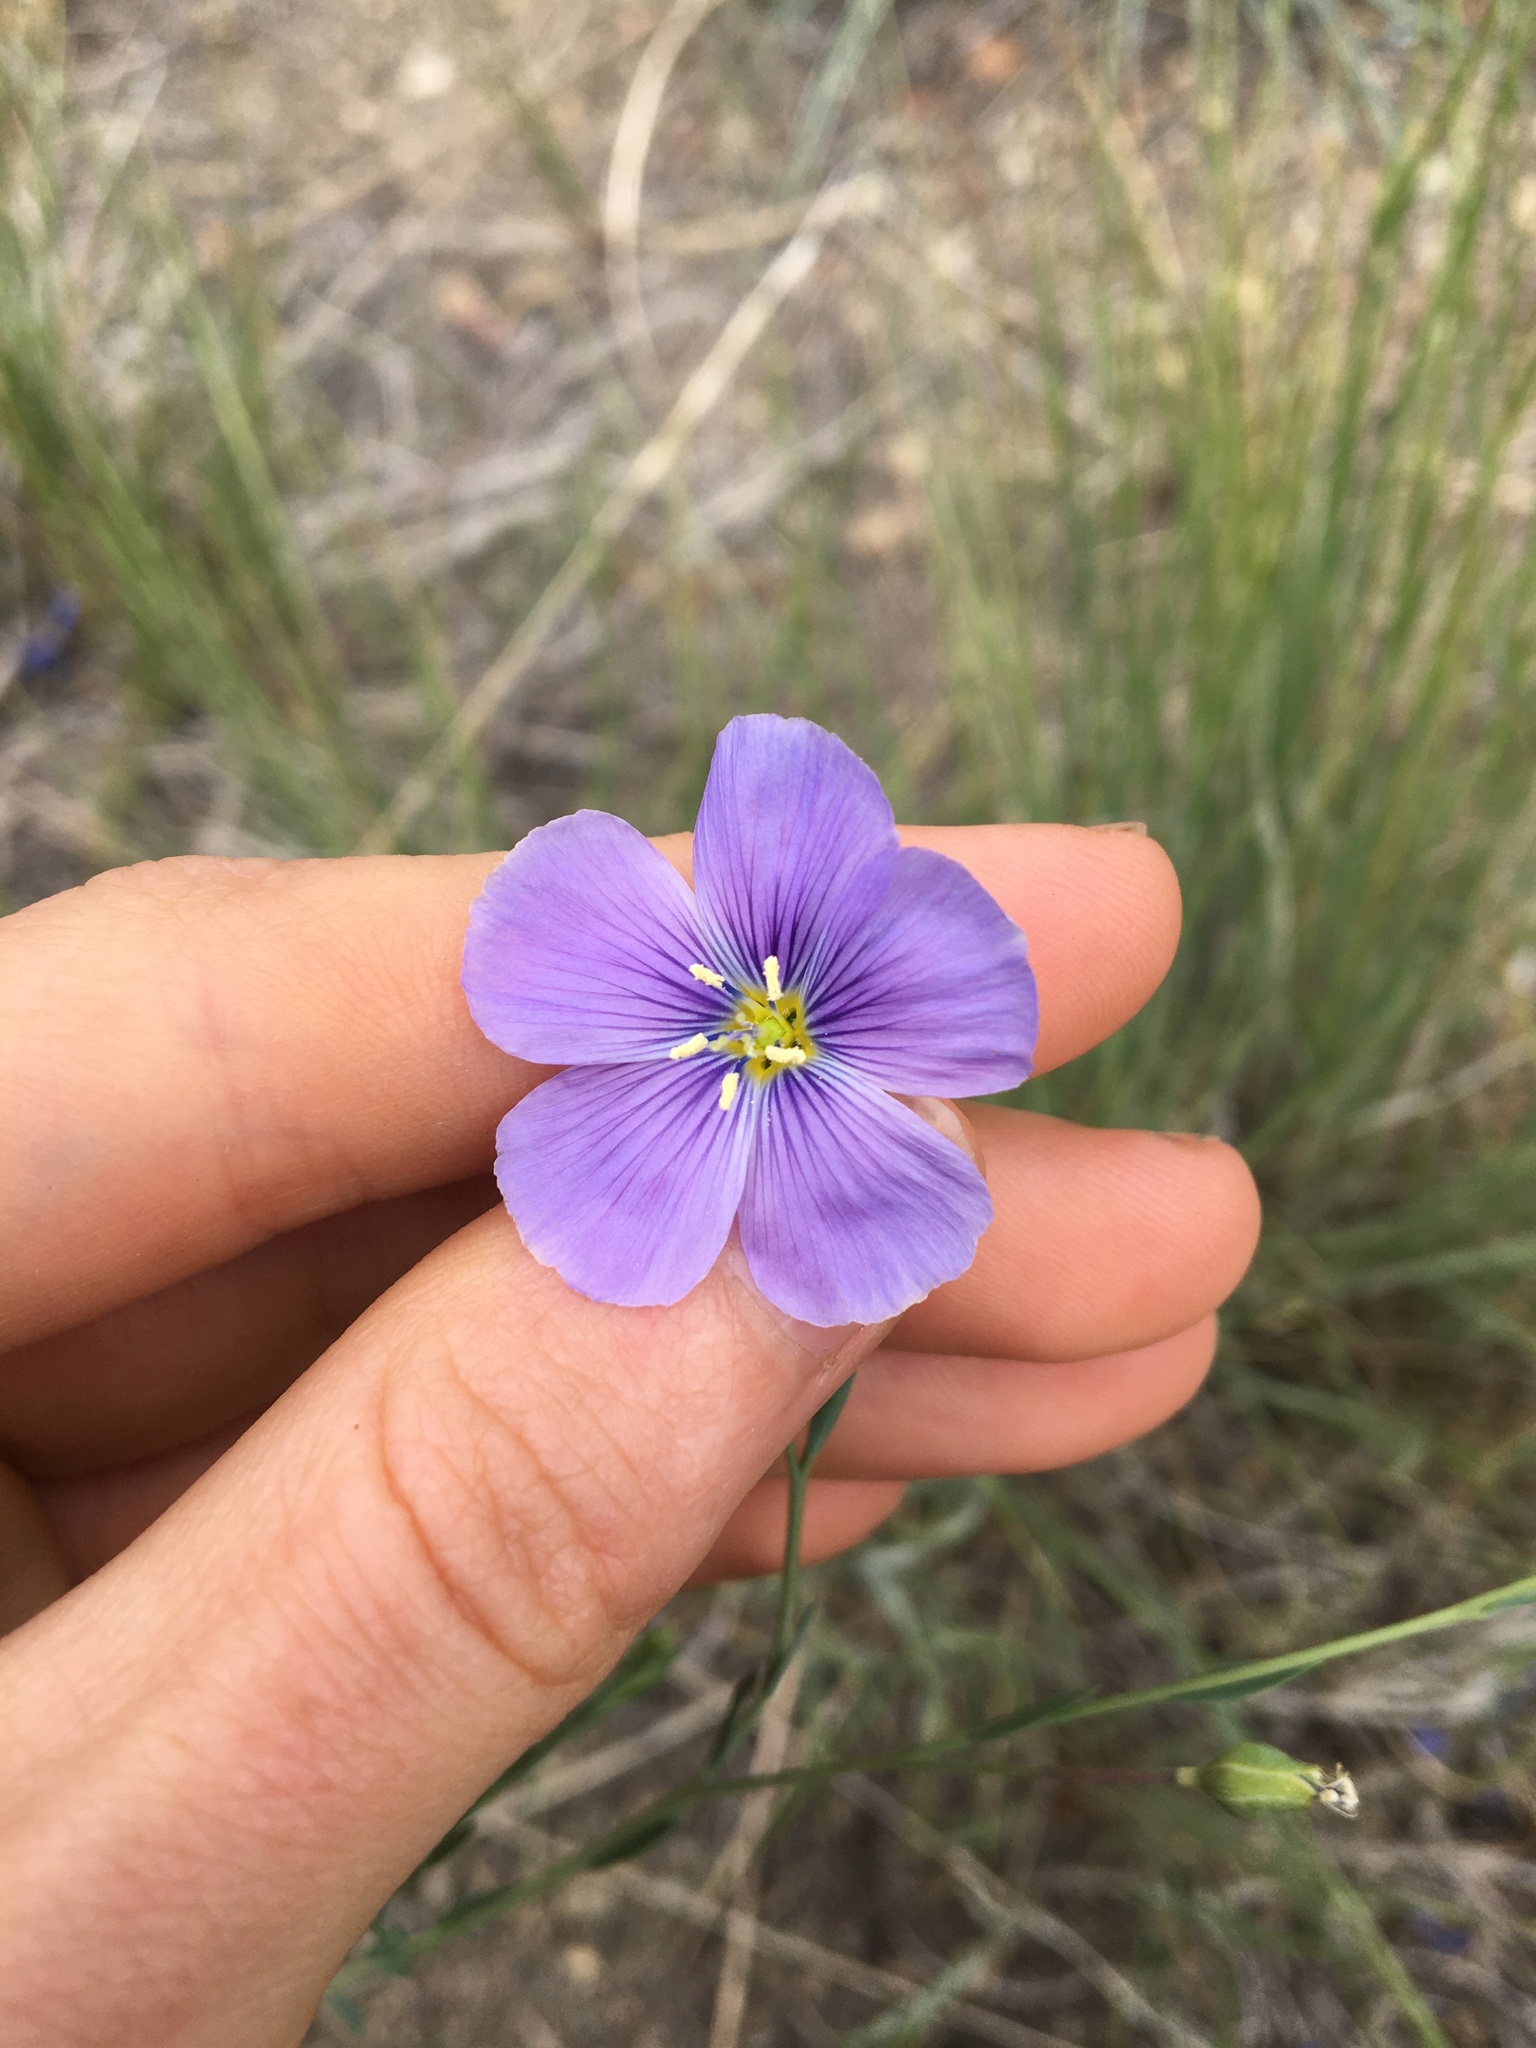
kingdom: Plantae
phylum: Tracheophyta
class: Magnoliopsida
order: Malpighiales
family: Linaceae
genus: Linum
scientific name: Linum lewisii
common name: Prairie flax
